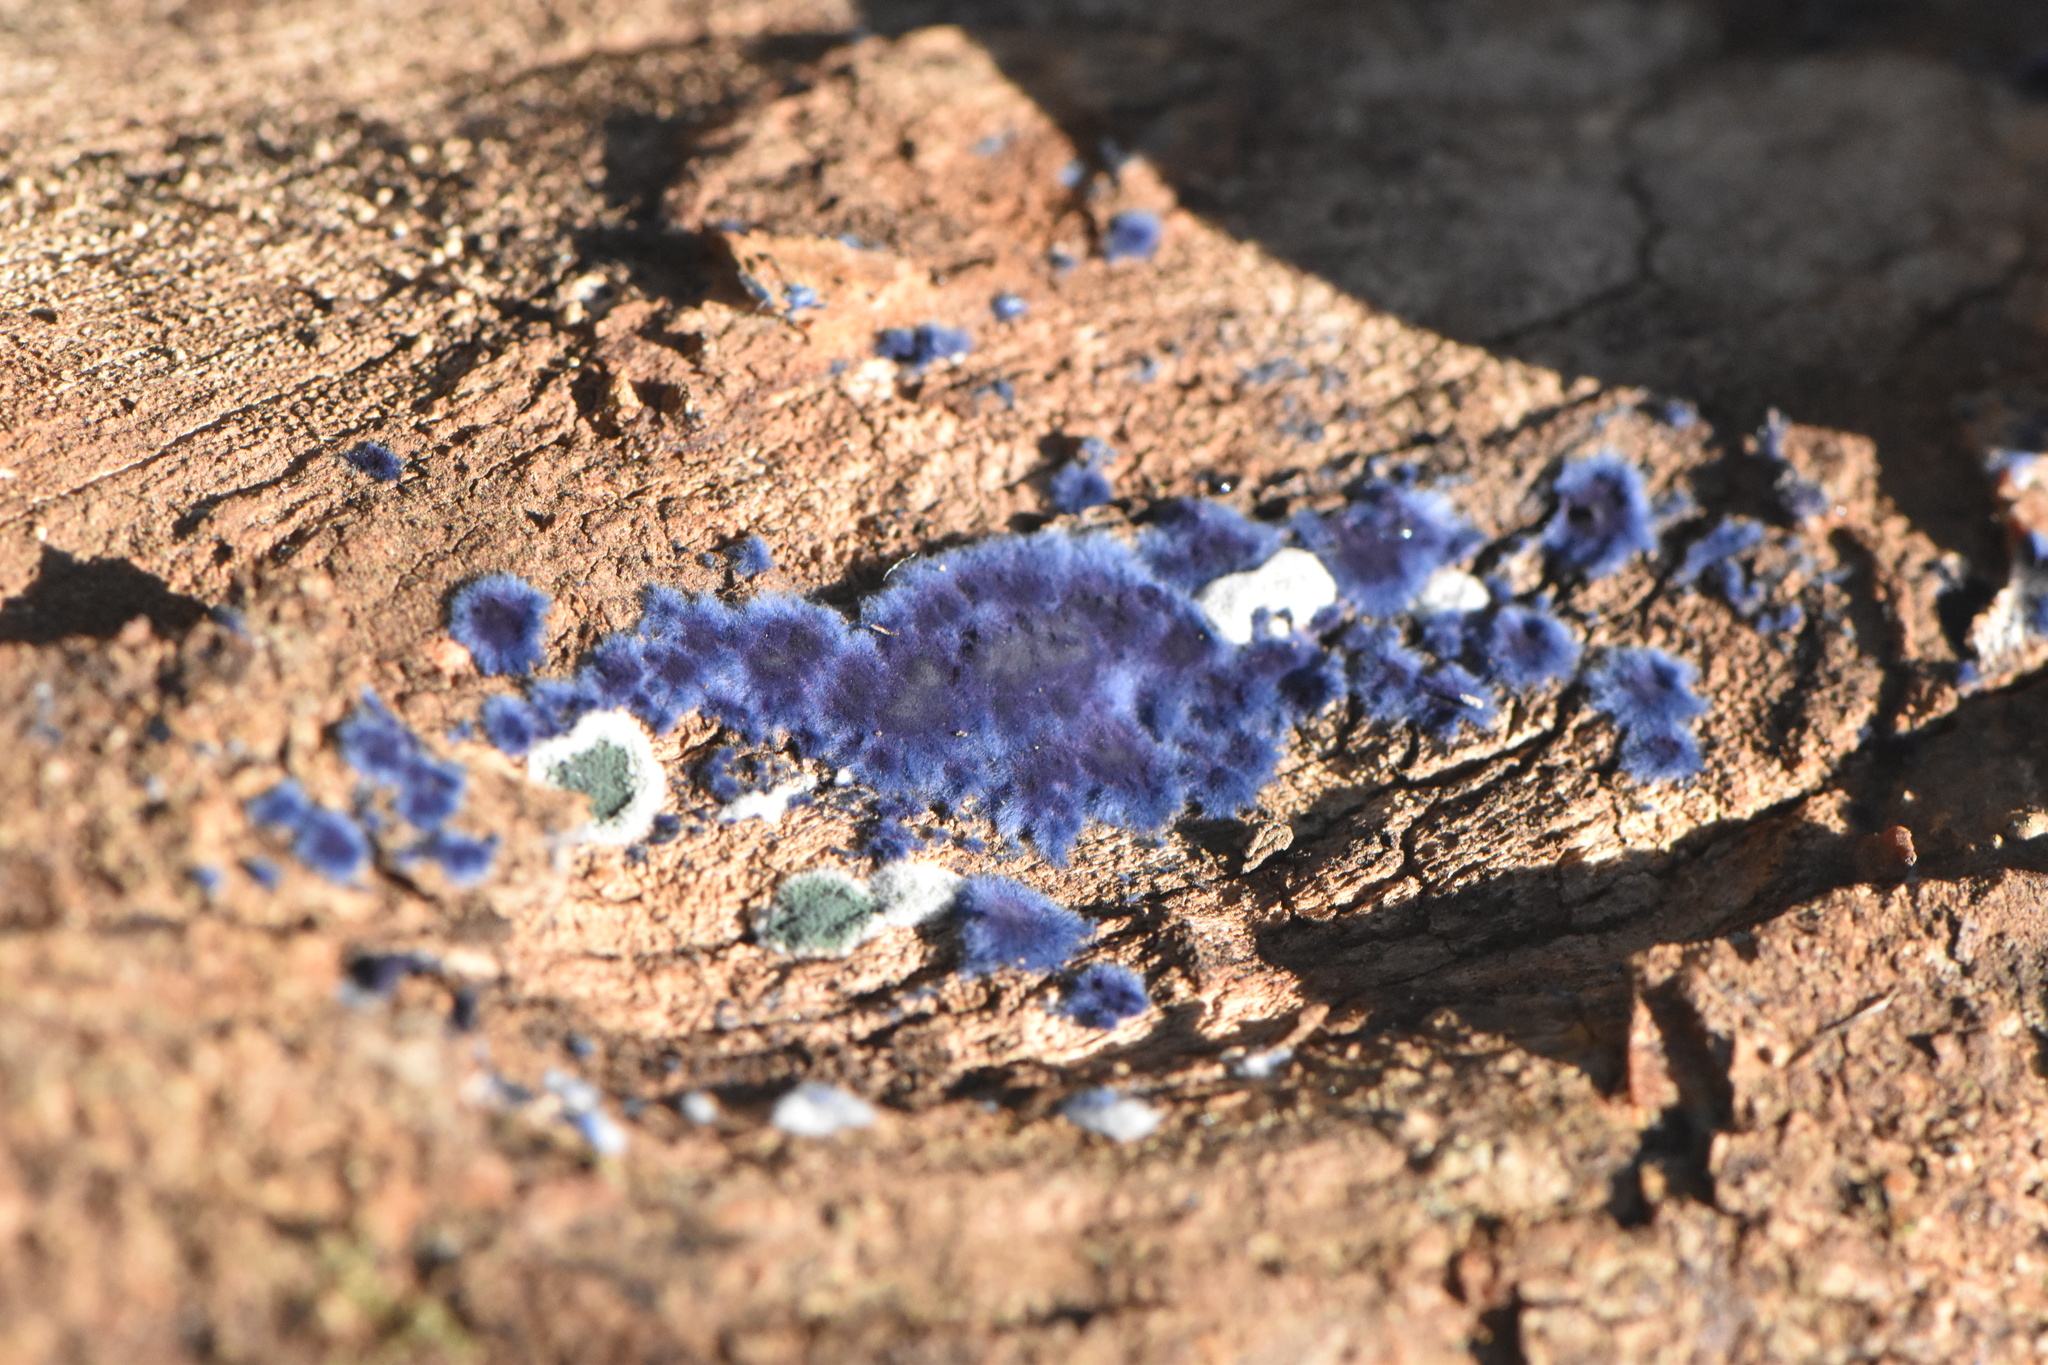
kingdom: Fungi
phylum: Basidiomycota
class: Agaricomycetes
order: Polyporales
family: Phanerochaetaceae
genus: Terana
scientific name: Terana coerulea
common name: Cobalt crust
